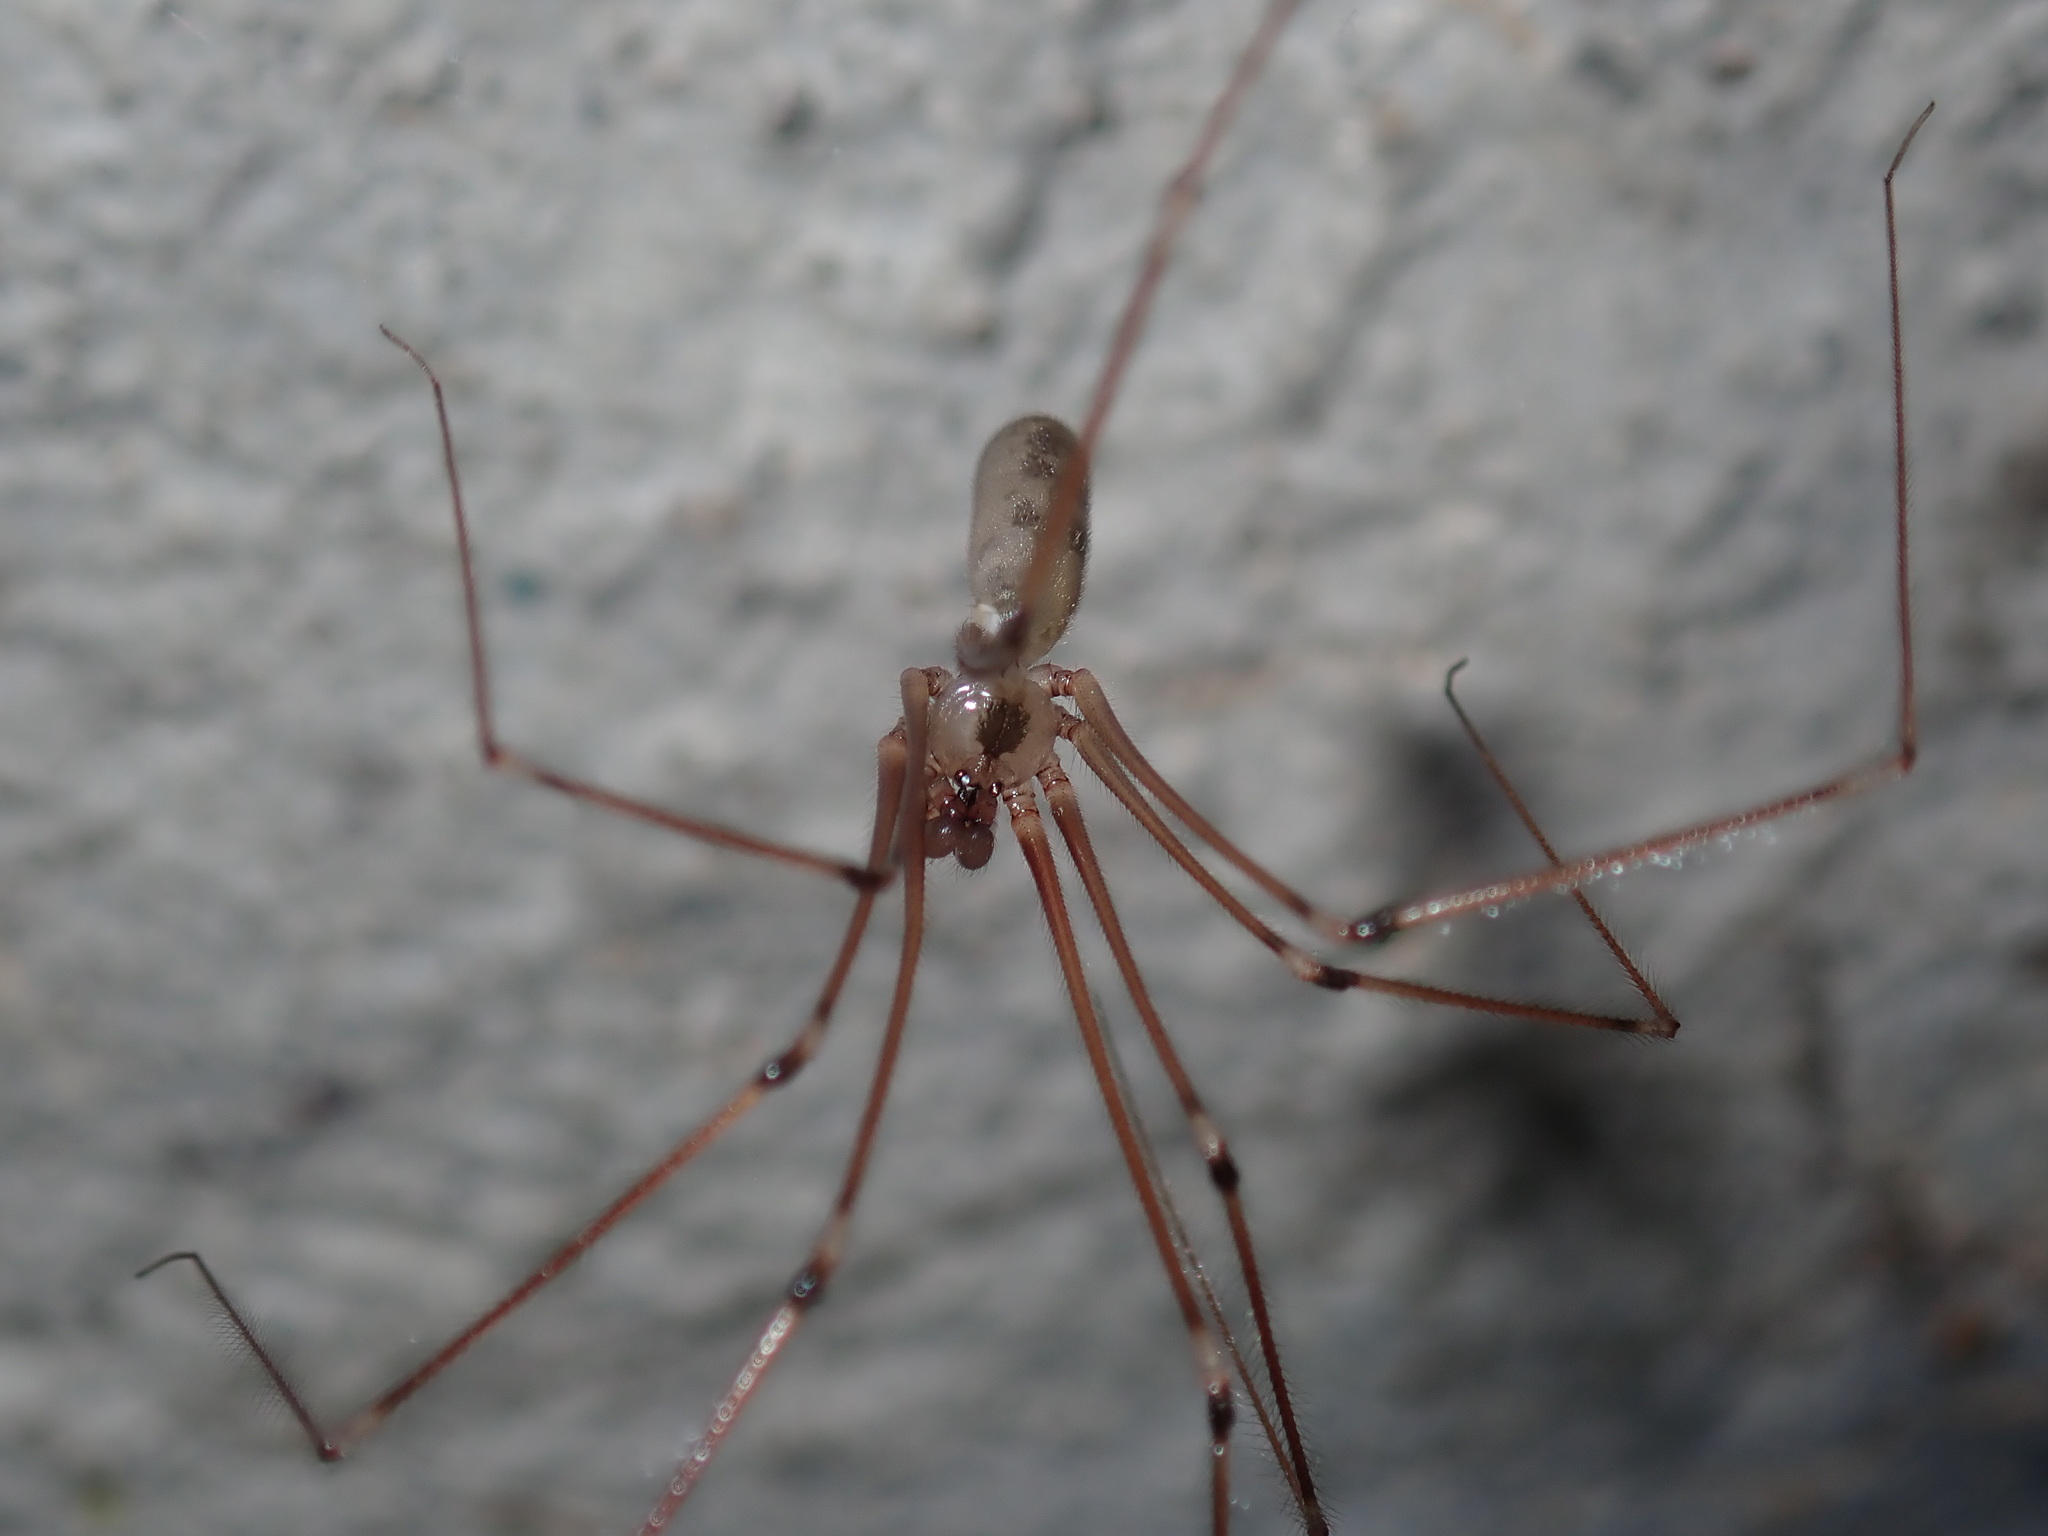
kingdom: Animalia
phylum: Arthropoda
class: Arachnida
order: Araneae
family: Pholcidae
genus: Pholcus
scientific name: Pholcus phalangioides
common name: Longbodied cellar spider
